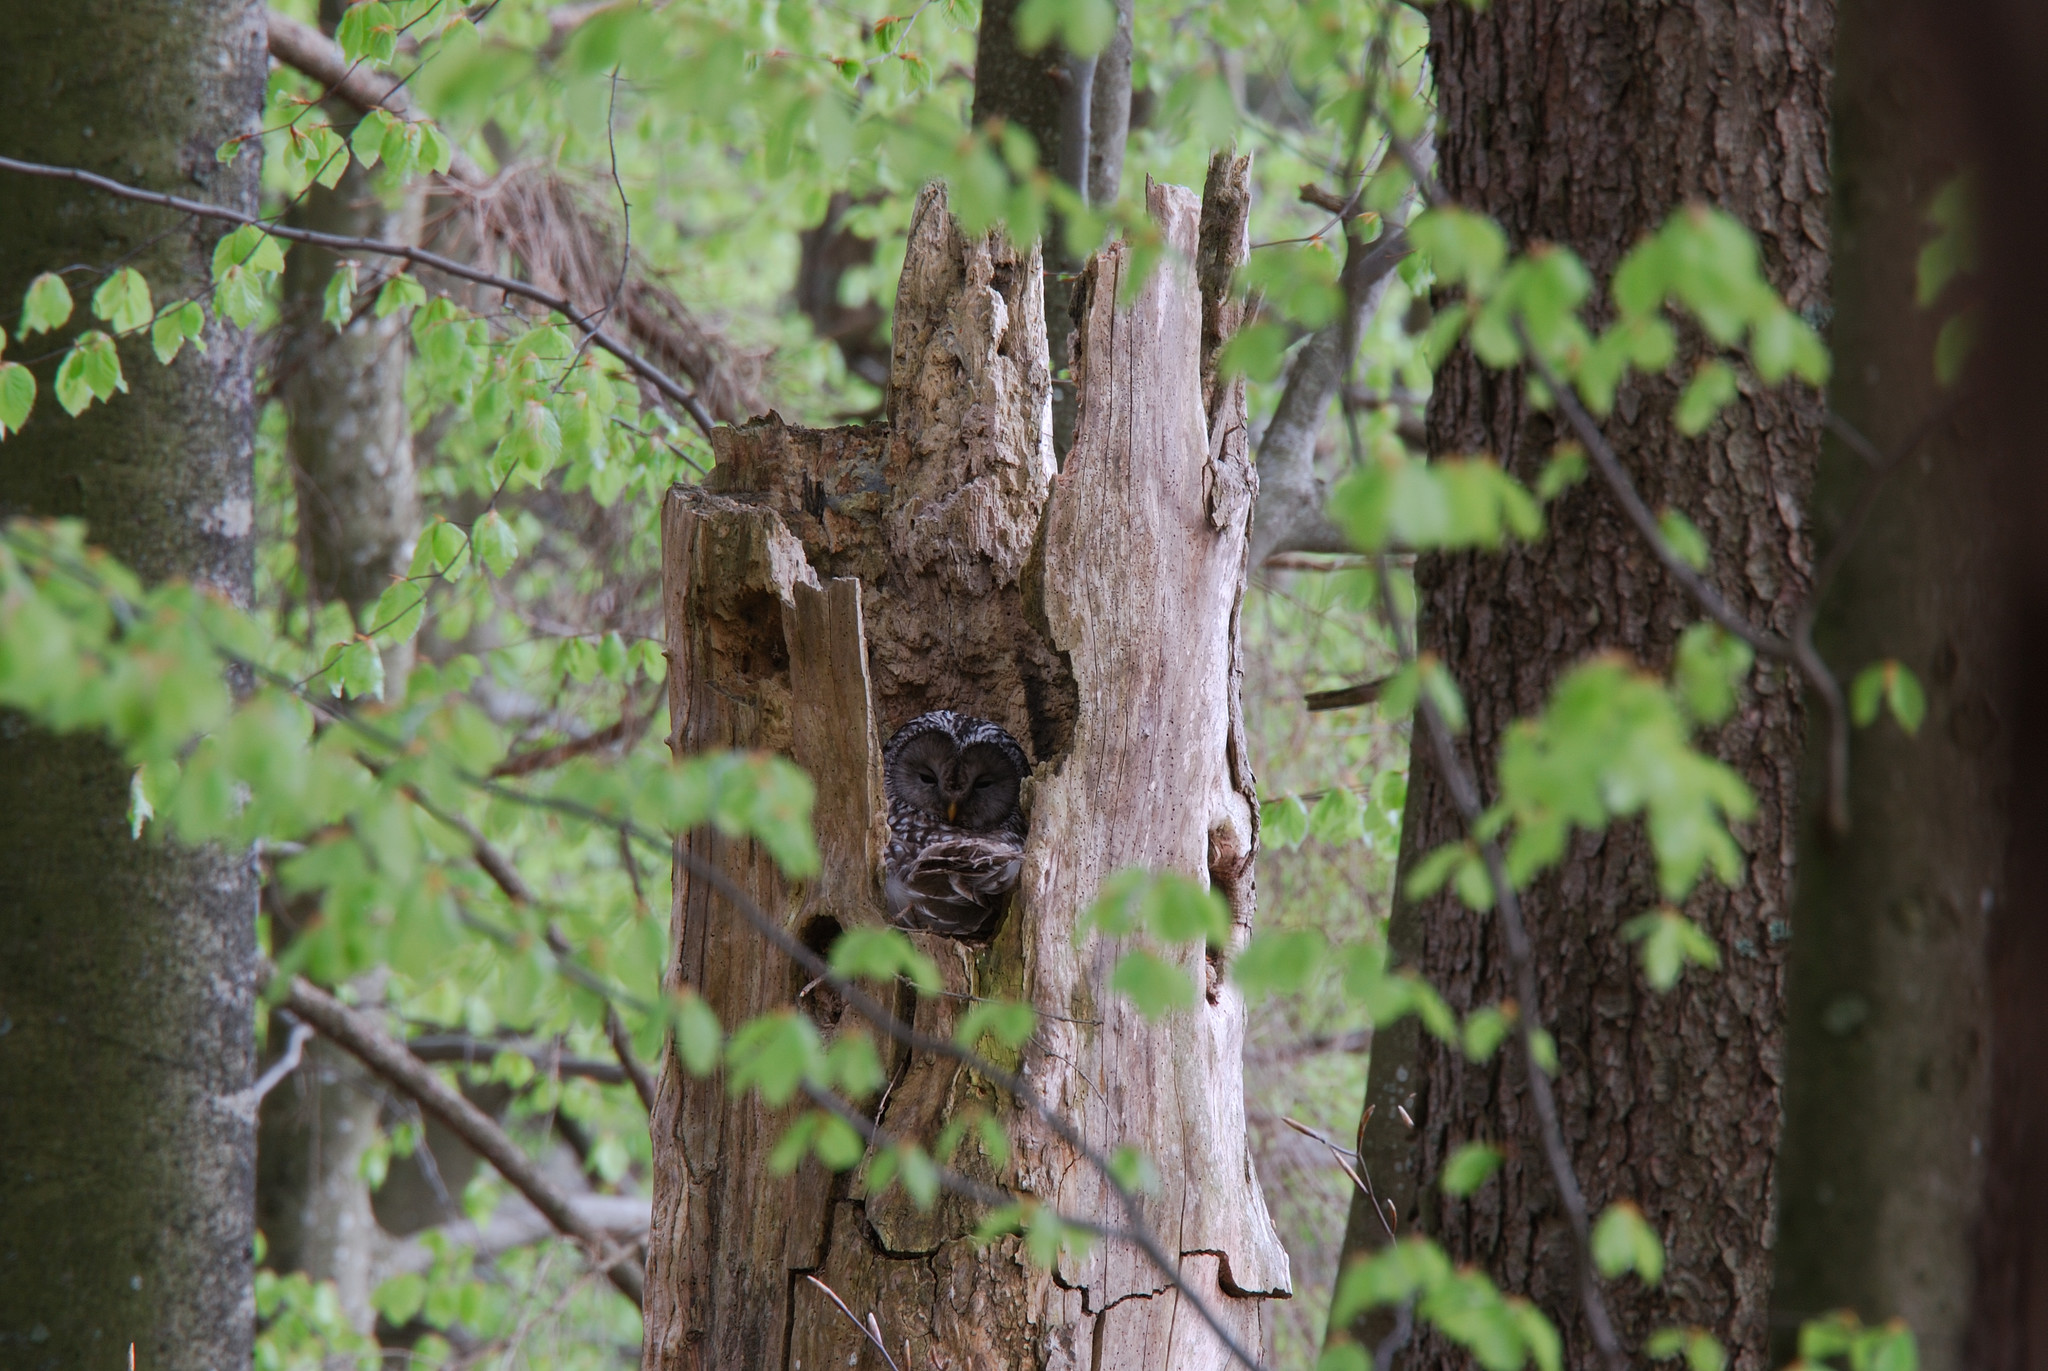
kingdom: Animalia
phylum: Chordata
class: Aves
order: Strigiformes
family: Strigidae
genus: Strix
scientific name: Strix uralensis
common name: Ural owl
